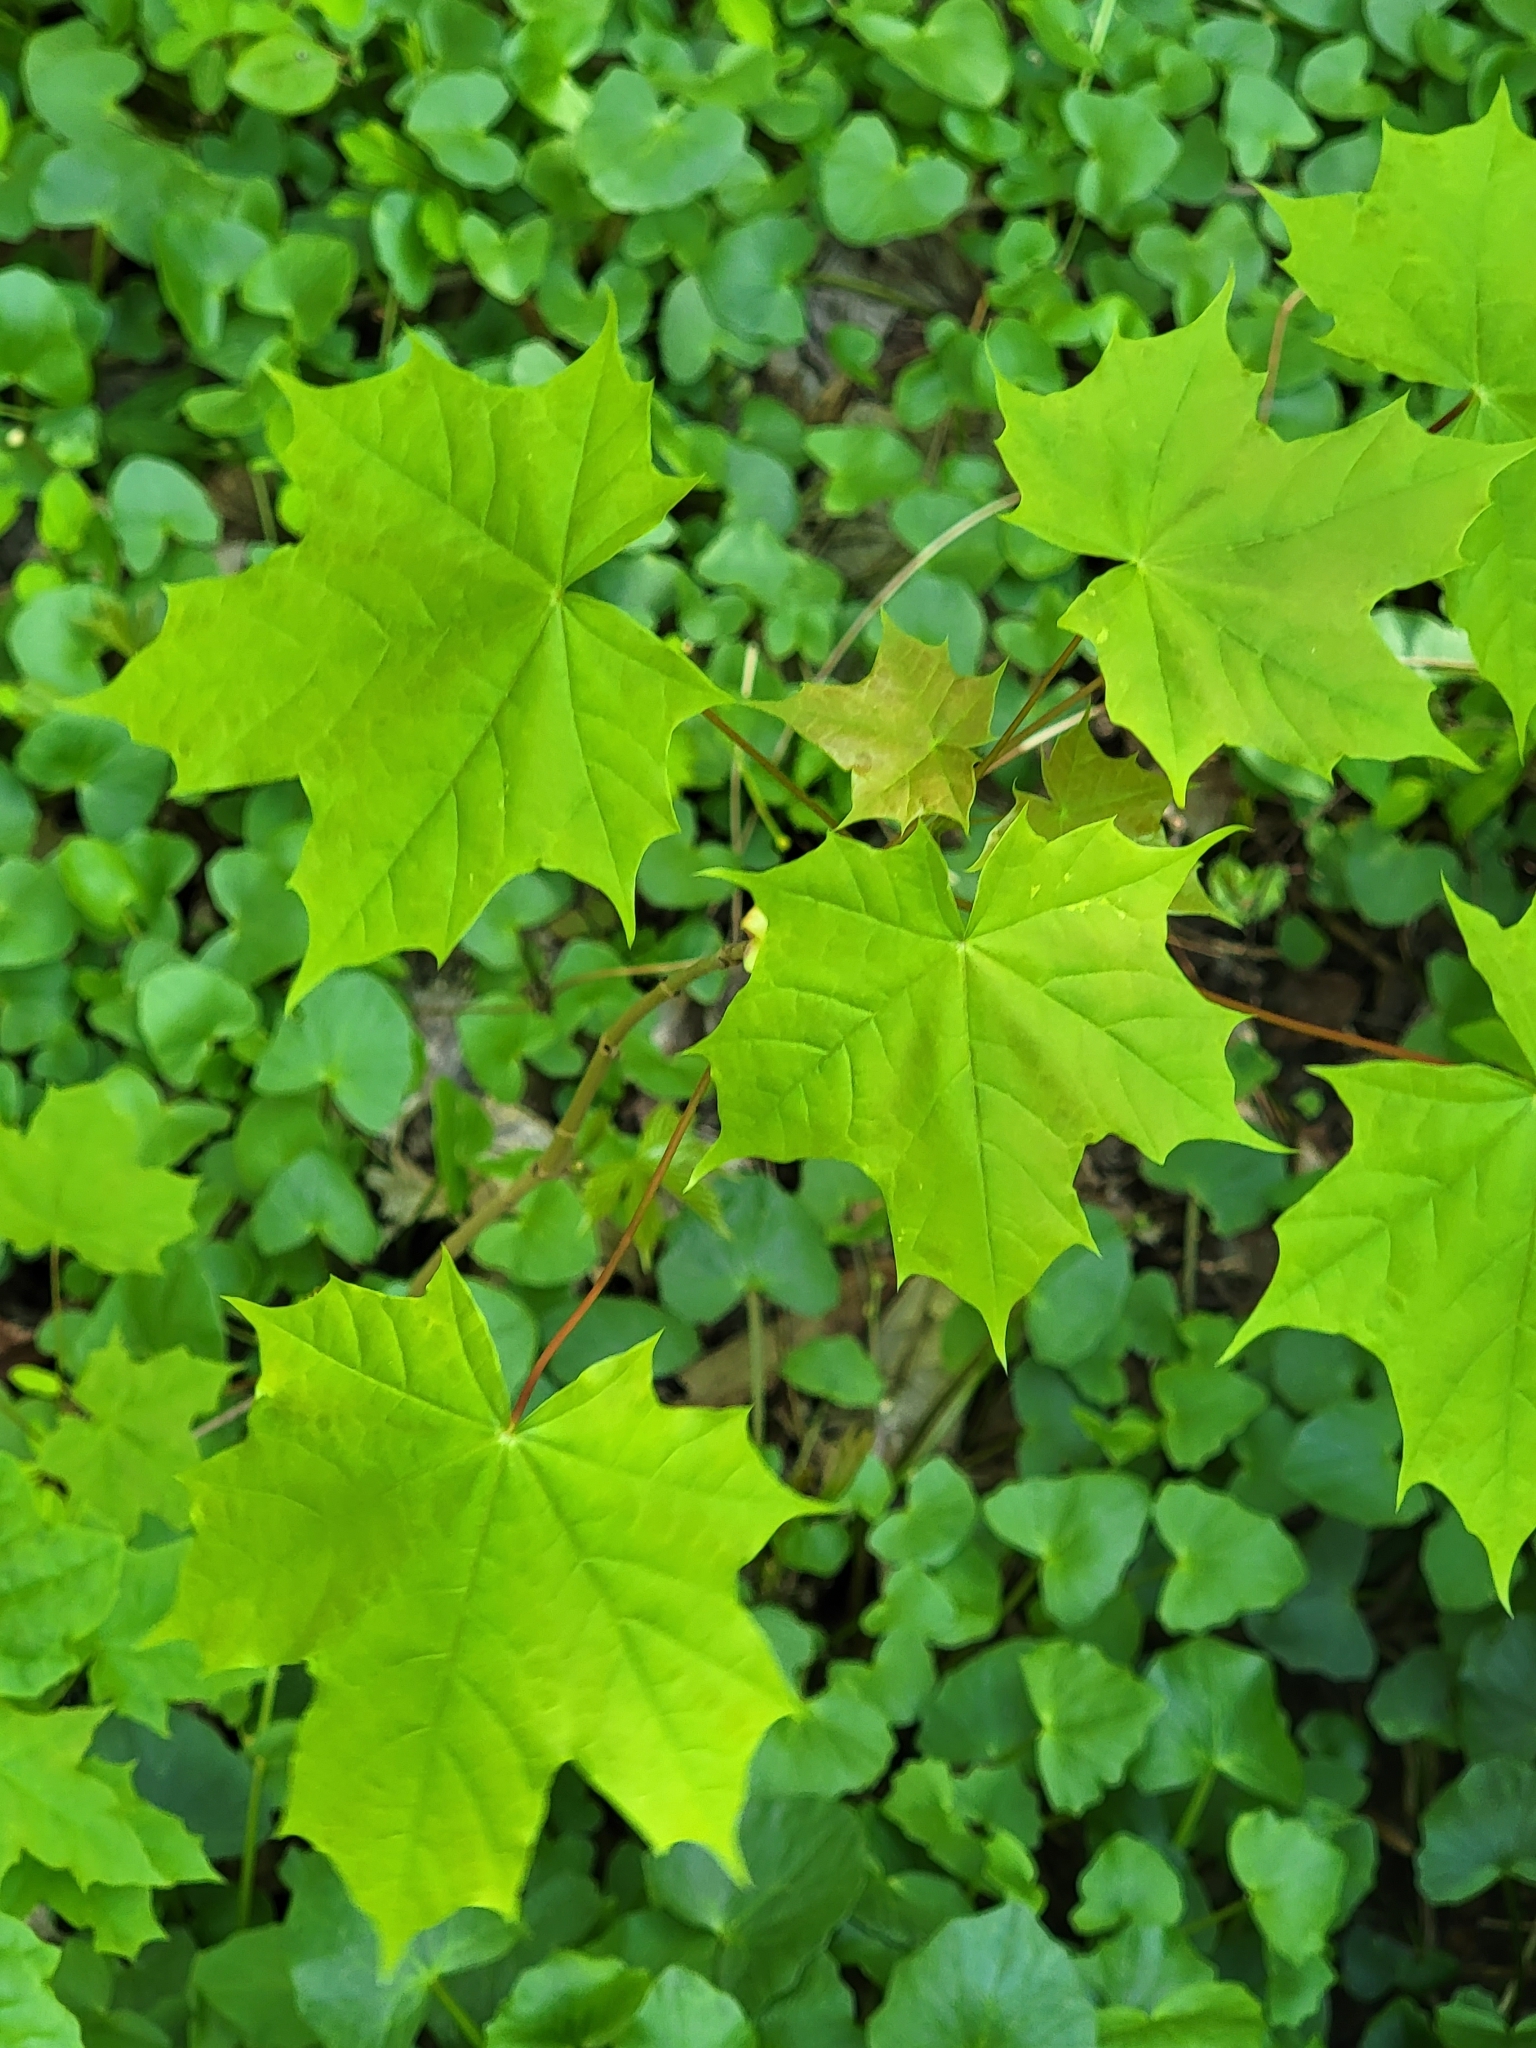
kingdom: Plantae
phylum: Tracheophyta
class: Magnoliopsida
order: Sapindales
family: Sapindaceae
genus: Acer
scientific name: Acer platanoides
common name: Norway maple
